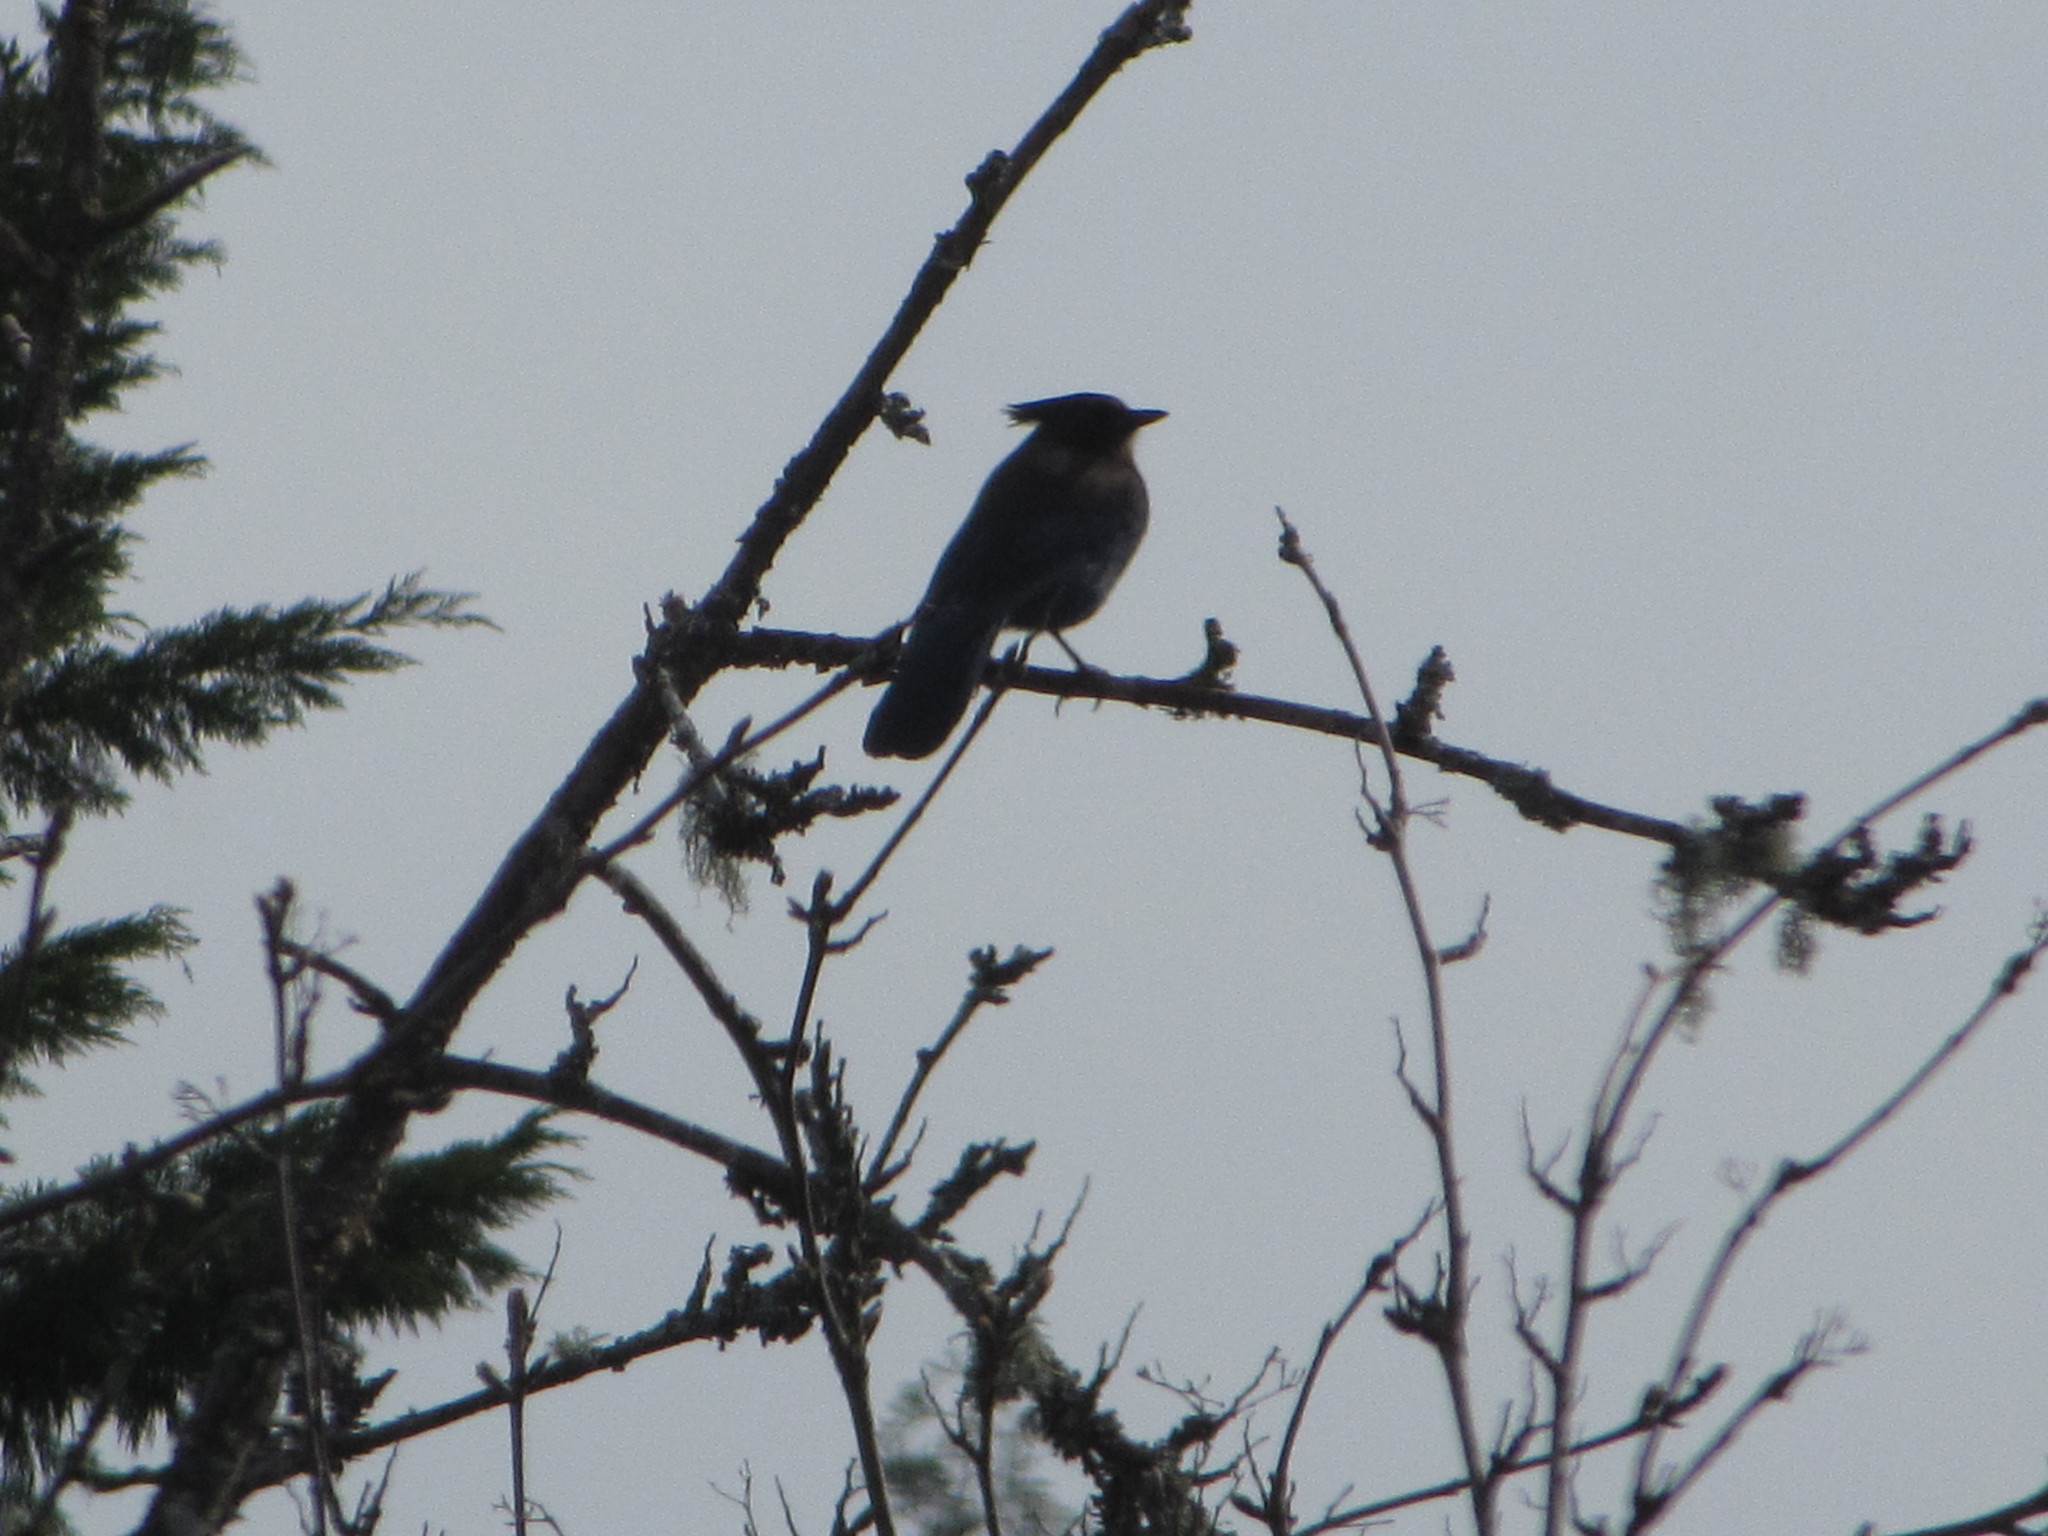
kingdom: Animalia
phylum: Chordata
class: Aves
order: Passeriformes
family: Corvidae
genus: Cyanocitta
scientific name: Cyanocitta stelleri
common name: Steller's jay
